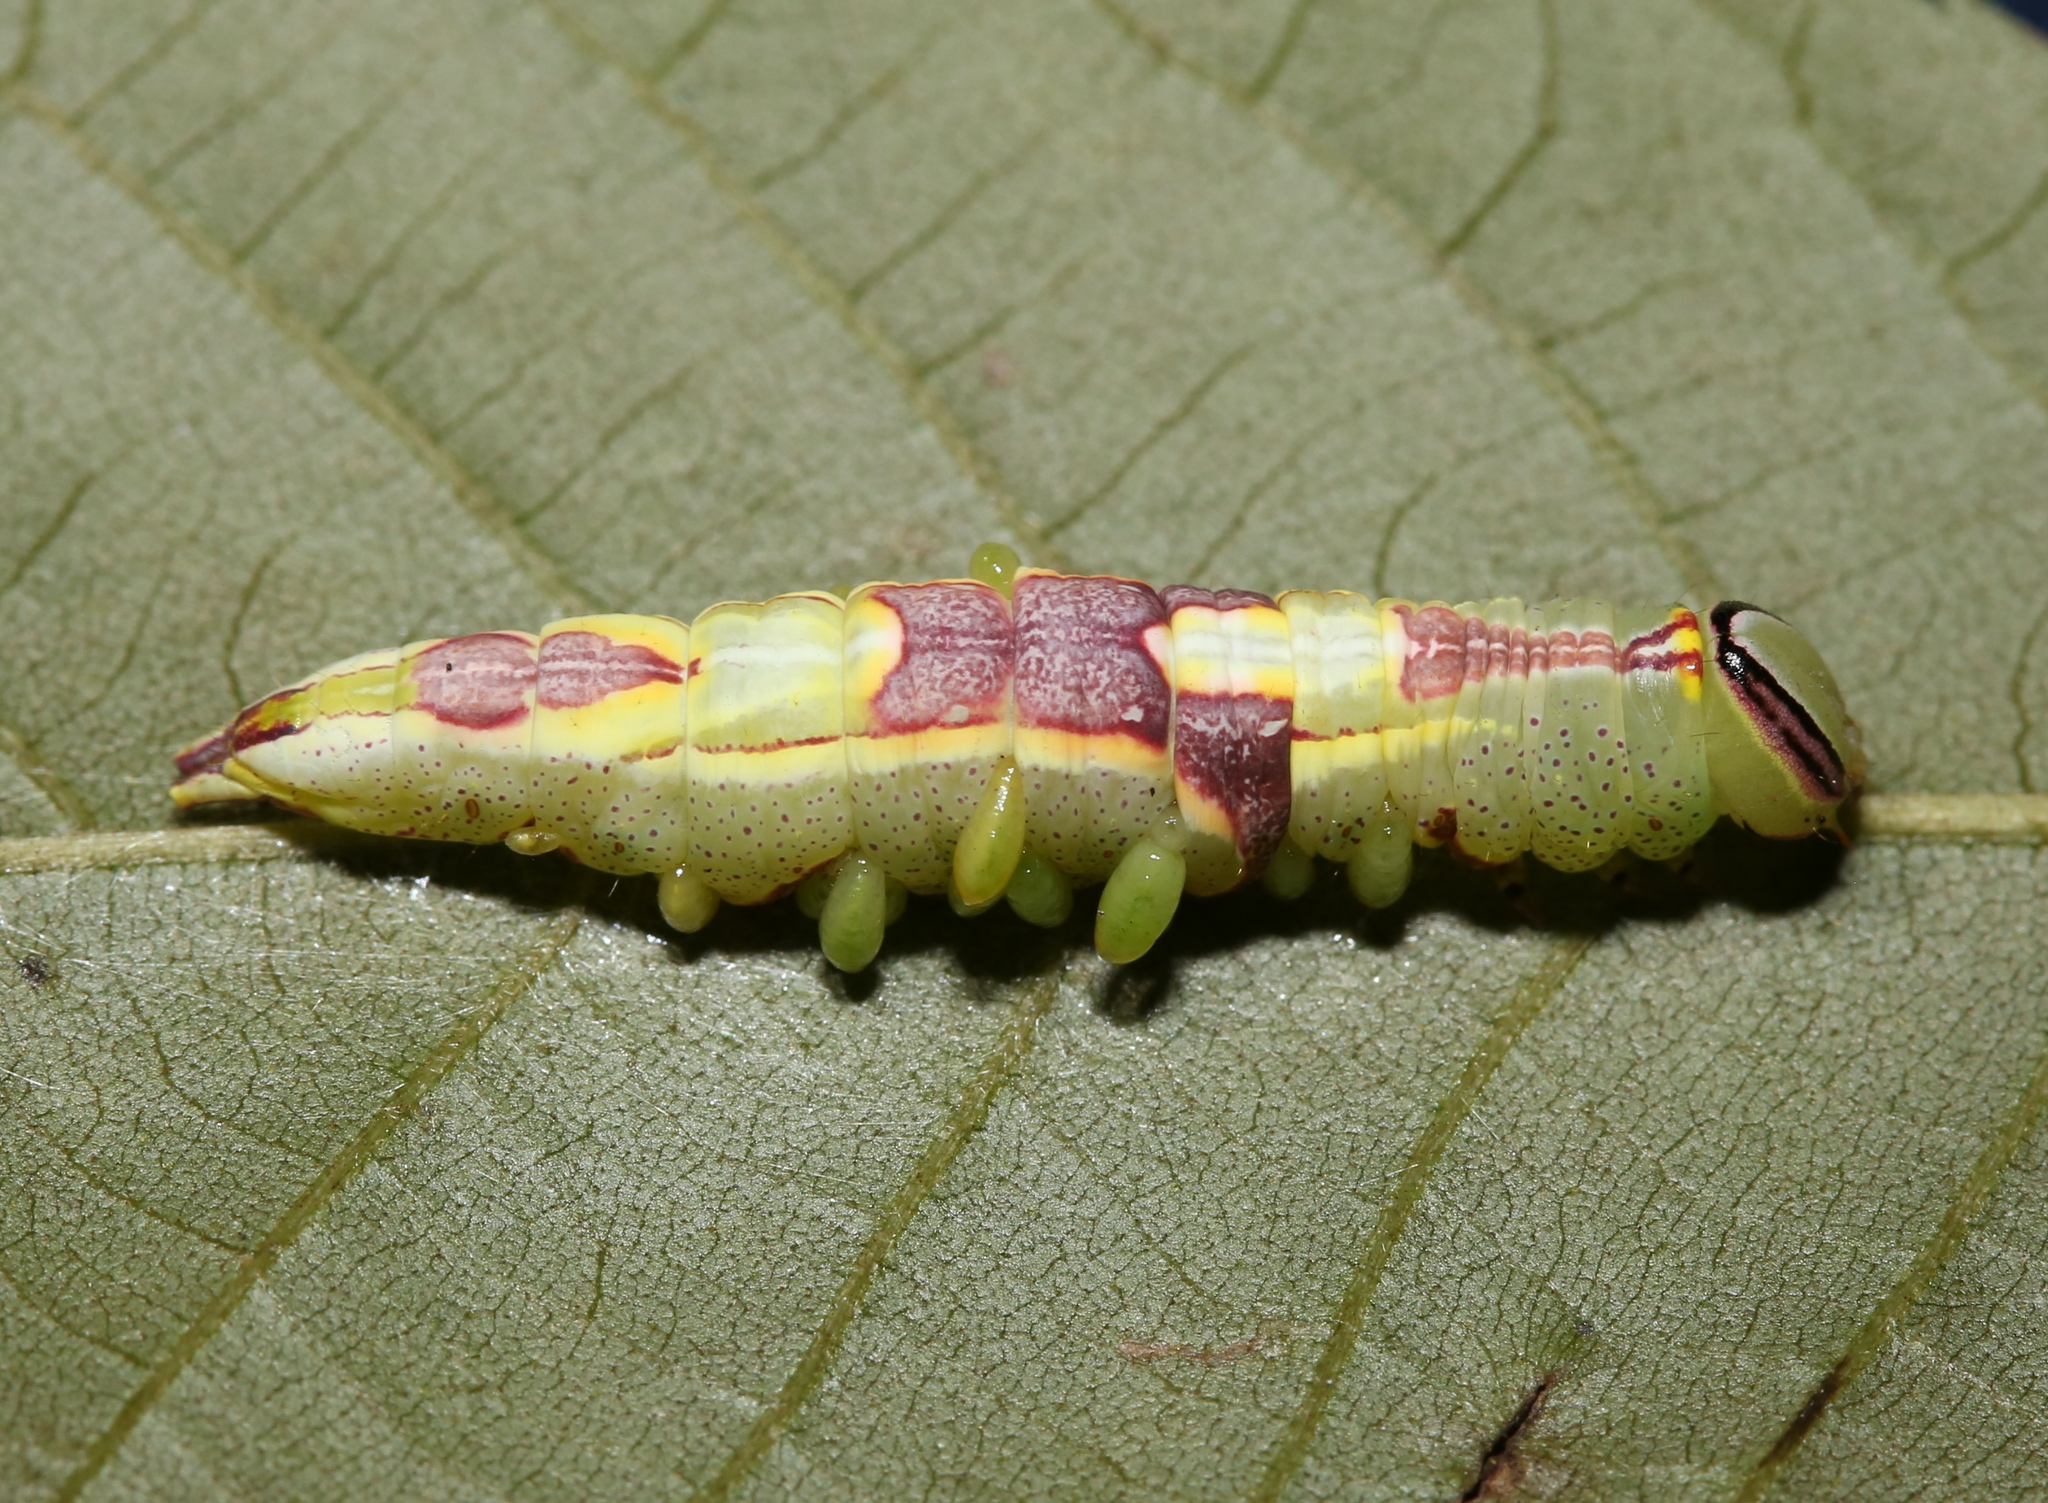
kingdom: Animalia
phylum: Arthropoda
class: Insecta
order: Lepidoptera
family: Notodontidae
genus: Disphragis
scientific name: Disphragis Cecrita guttivitta
